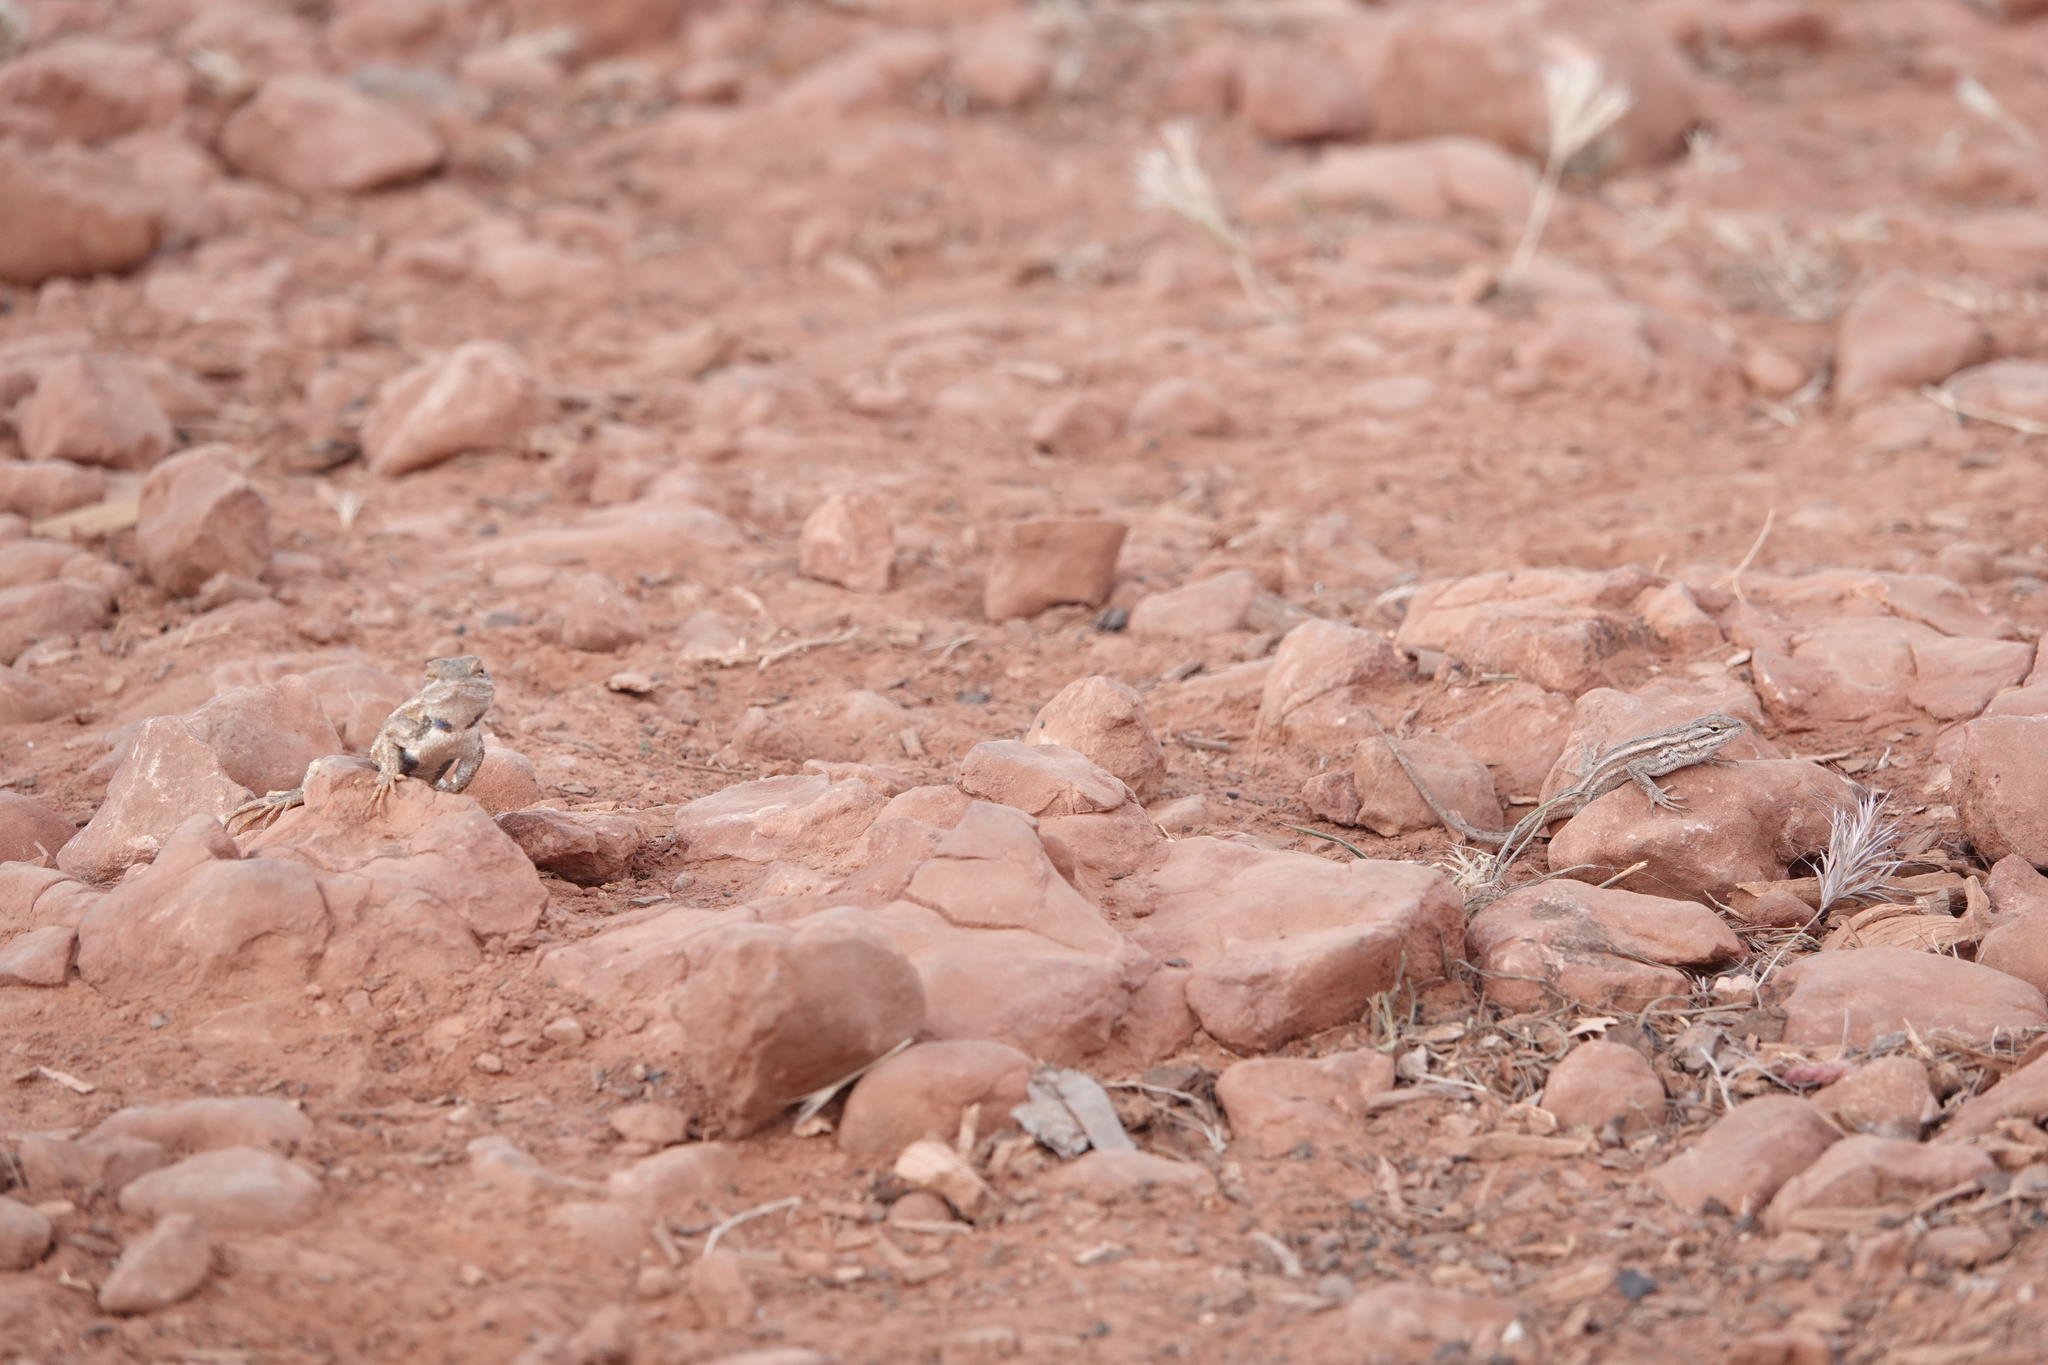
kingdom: Animalia
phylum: Chordata
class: Squamata
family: Phrynosomatidae
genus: Sceloporus
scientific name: Sceloporus tristichus
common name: Plateau fence lizard
